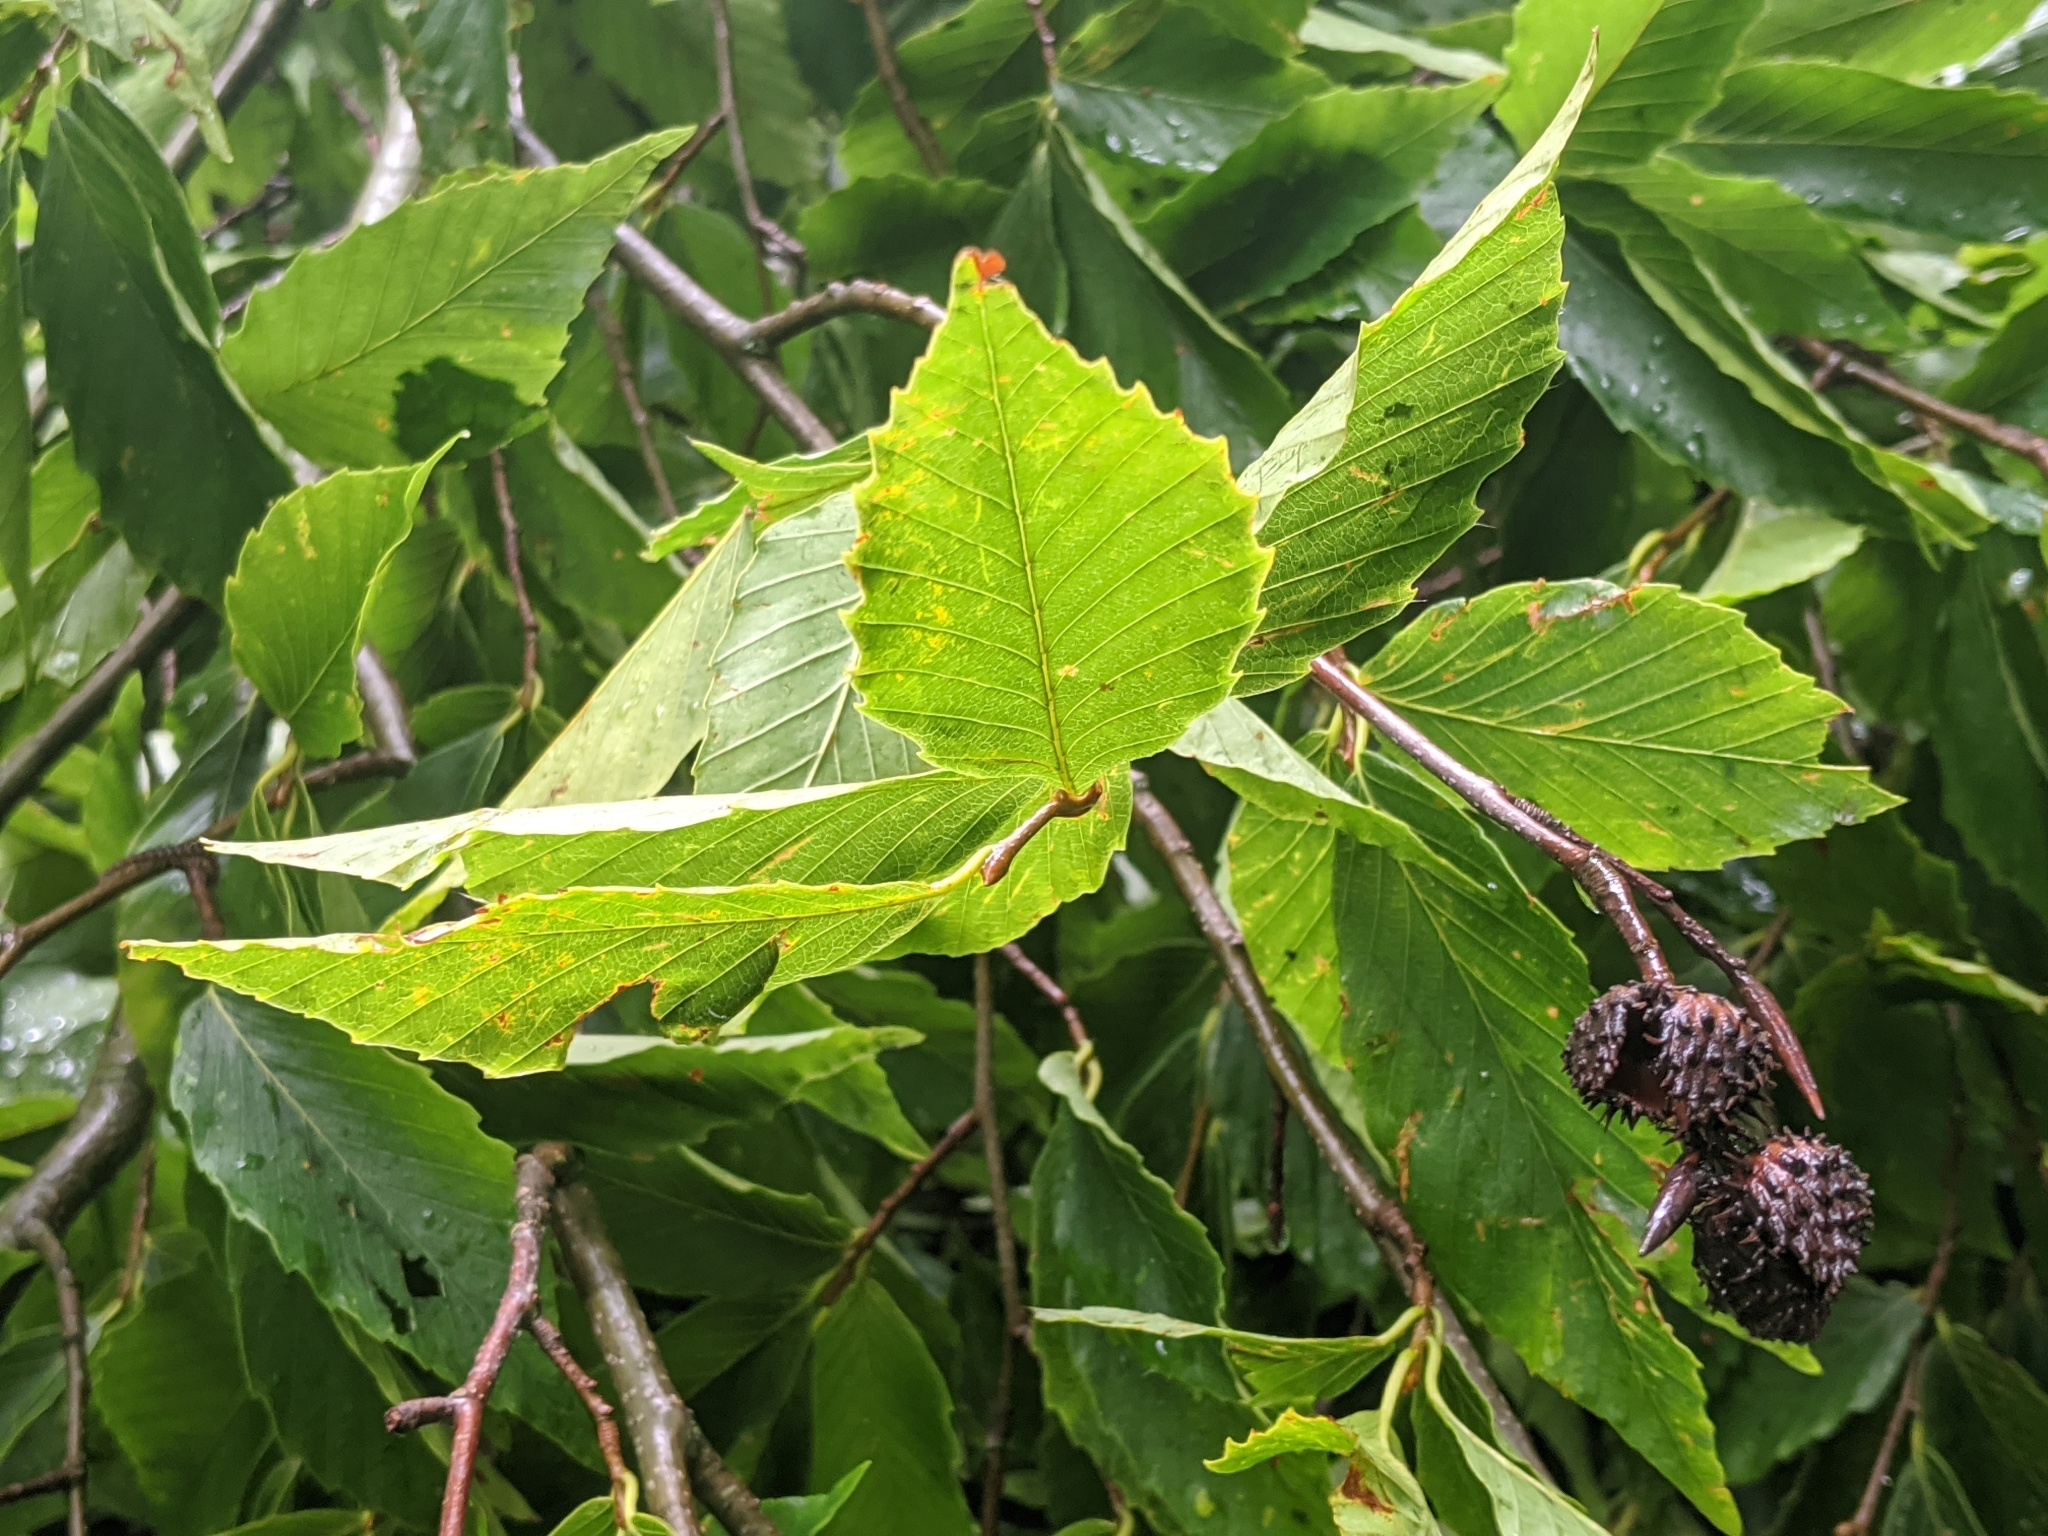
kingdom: Plantae
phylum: Tracheophyta
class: Magnoliopsida
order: Fagales
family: Fagaceae
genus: Fagus
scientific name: Fagus grandifolia
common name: American beech
